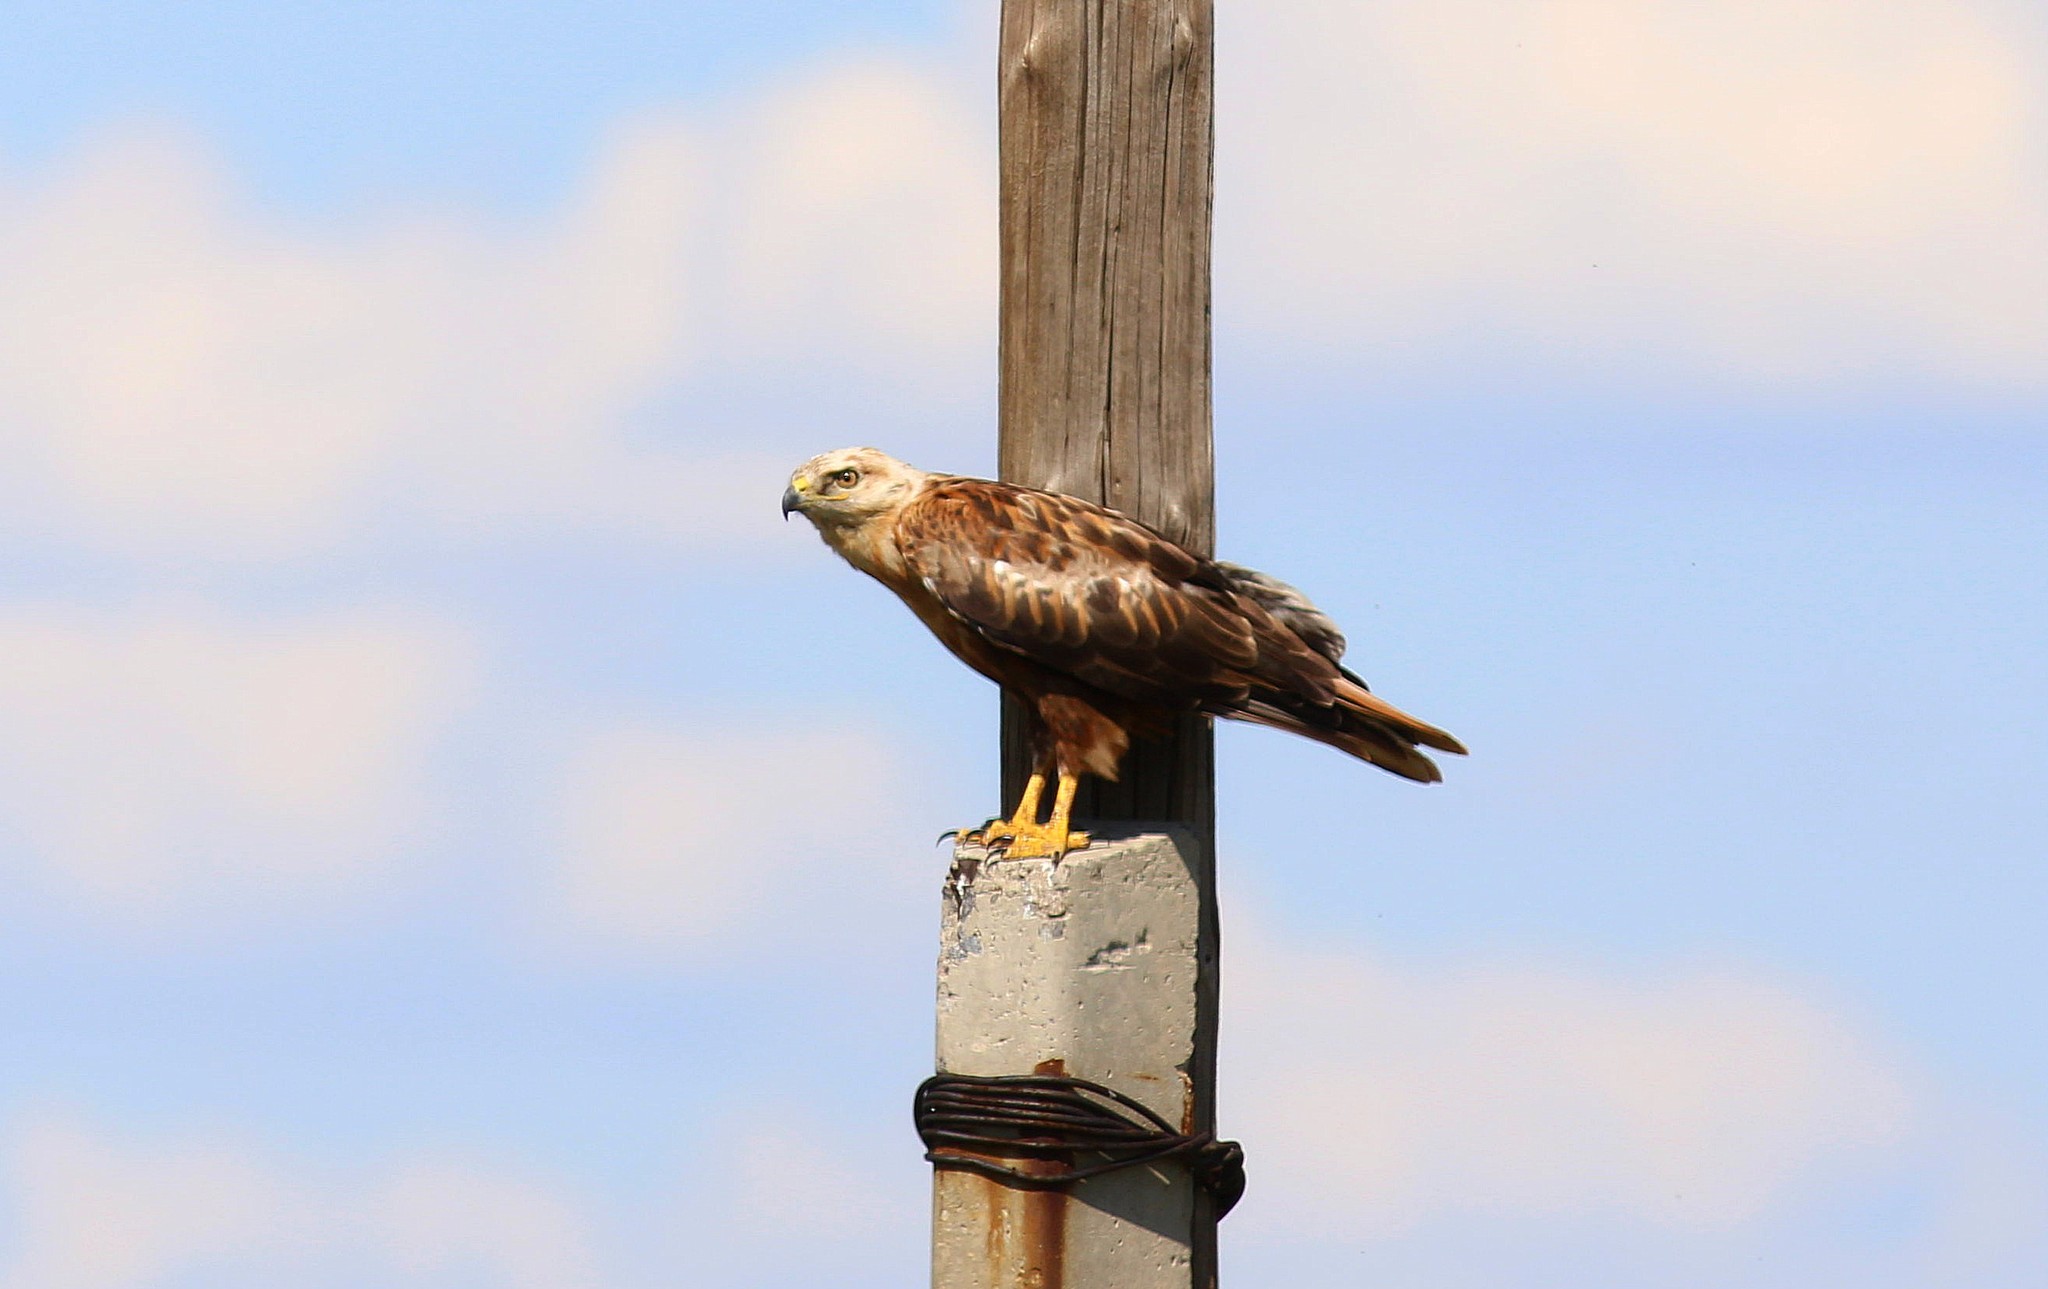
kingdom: Animalia
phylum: Chordata
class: Aves
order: Accipitriformes
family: Accipitridae
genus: Buteo
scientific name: Buteo rufinus
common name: Long-legged buzzard
